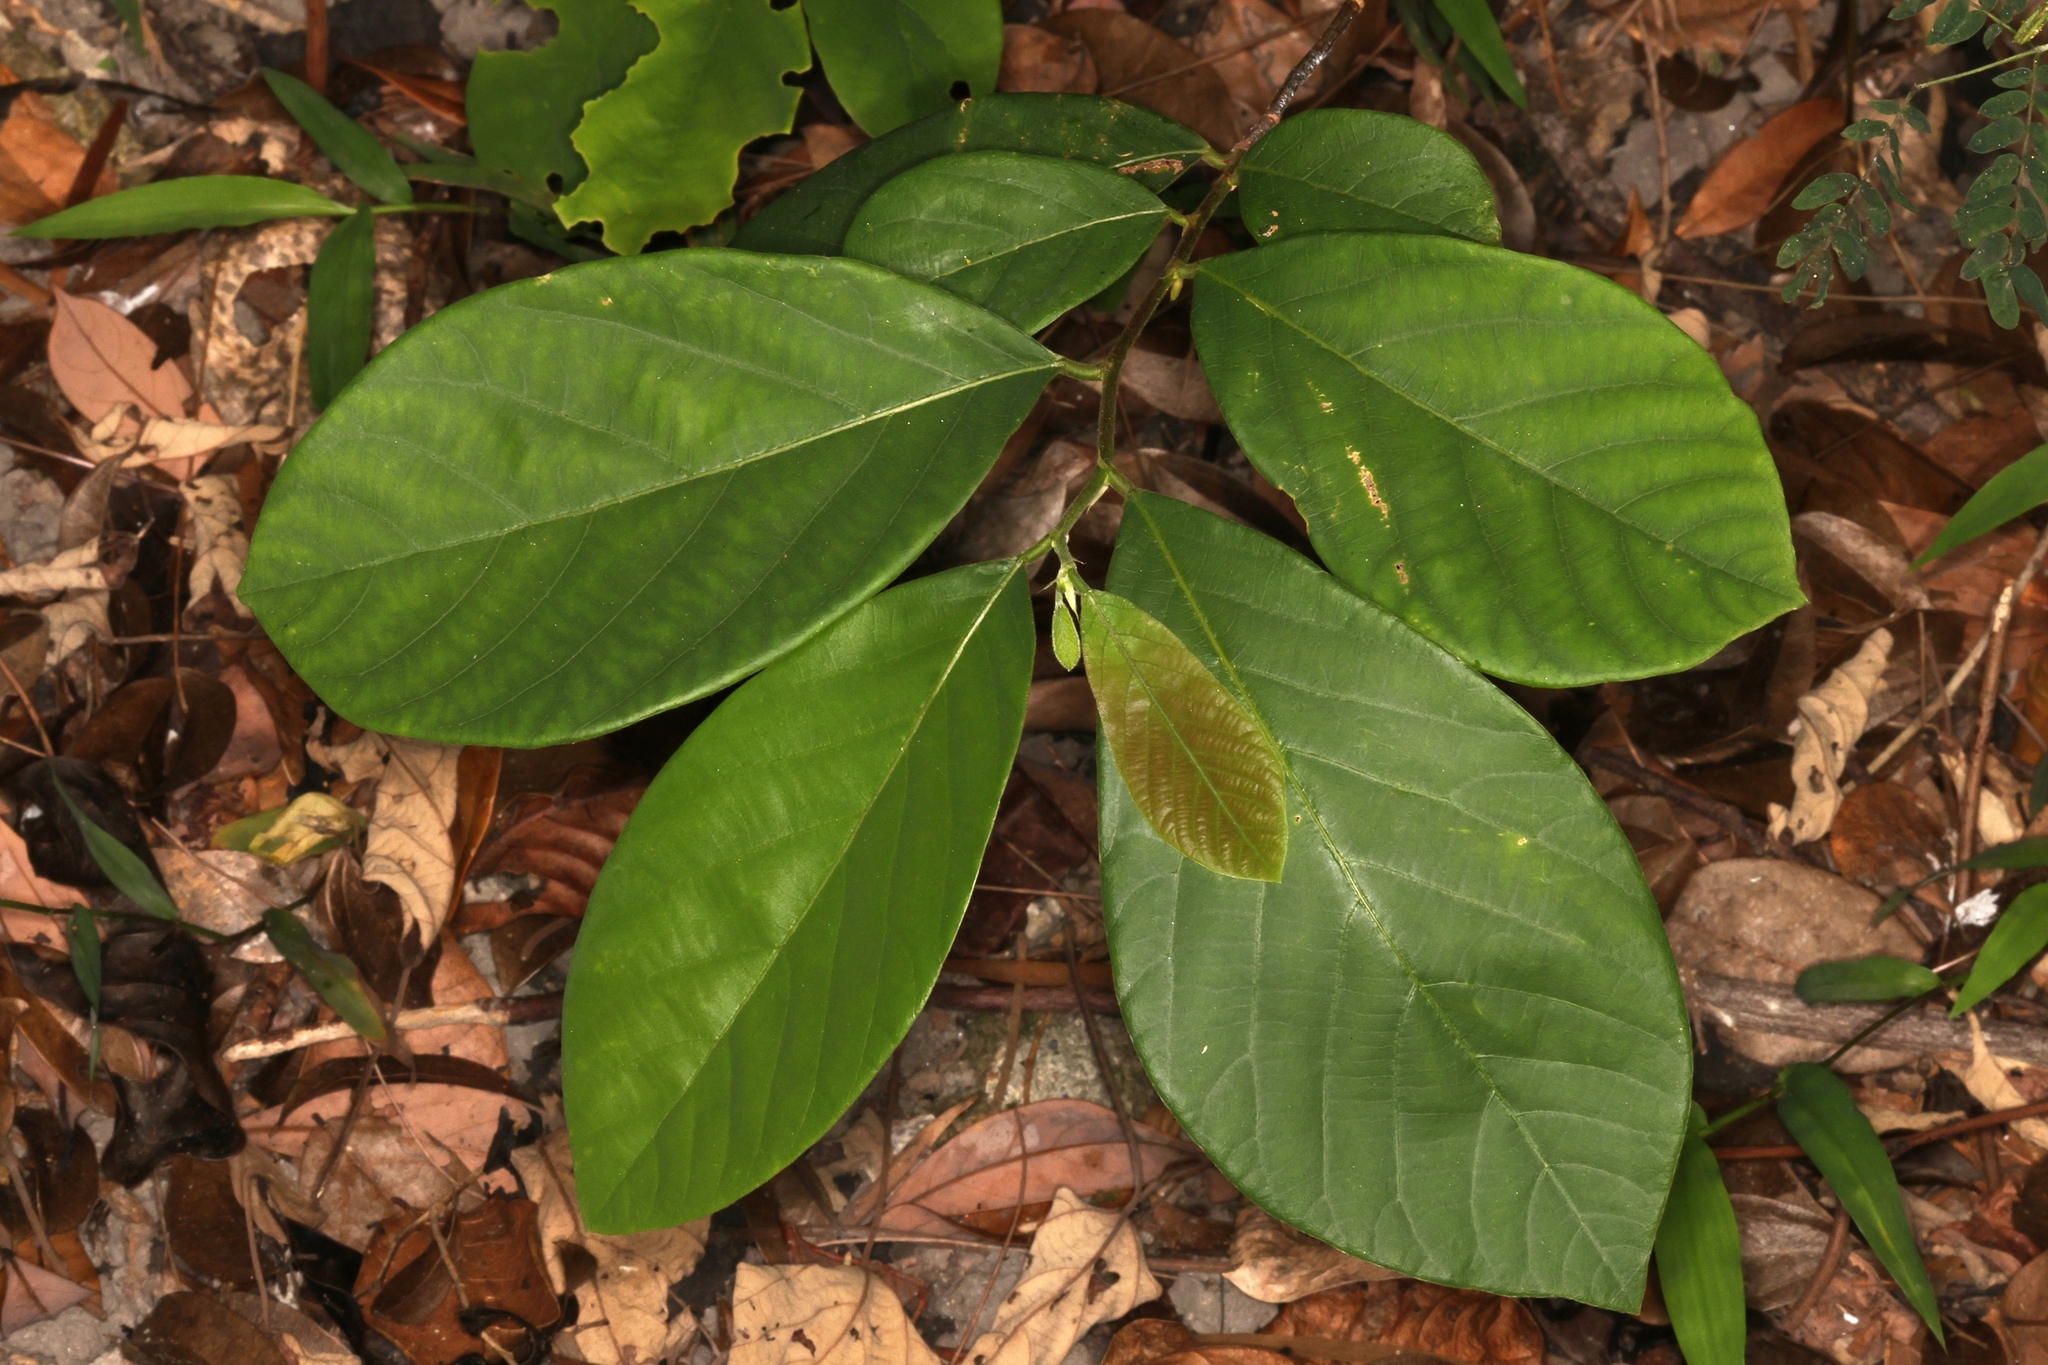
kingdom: Plantae
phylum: Tracheophyta
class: Magnoliopsida
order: Malpighiales
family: Phyllanthaceae
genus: Bridelia
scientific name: Bridelia tomentosa
